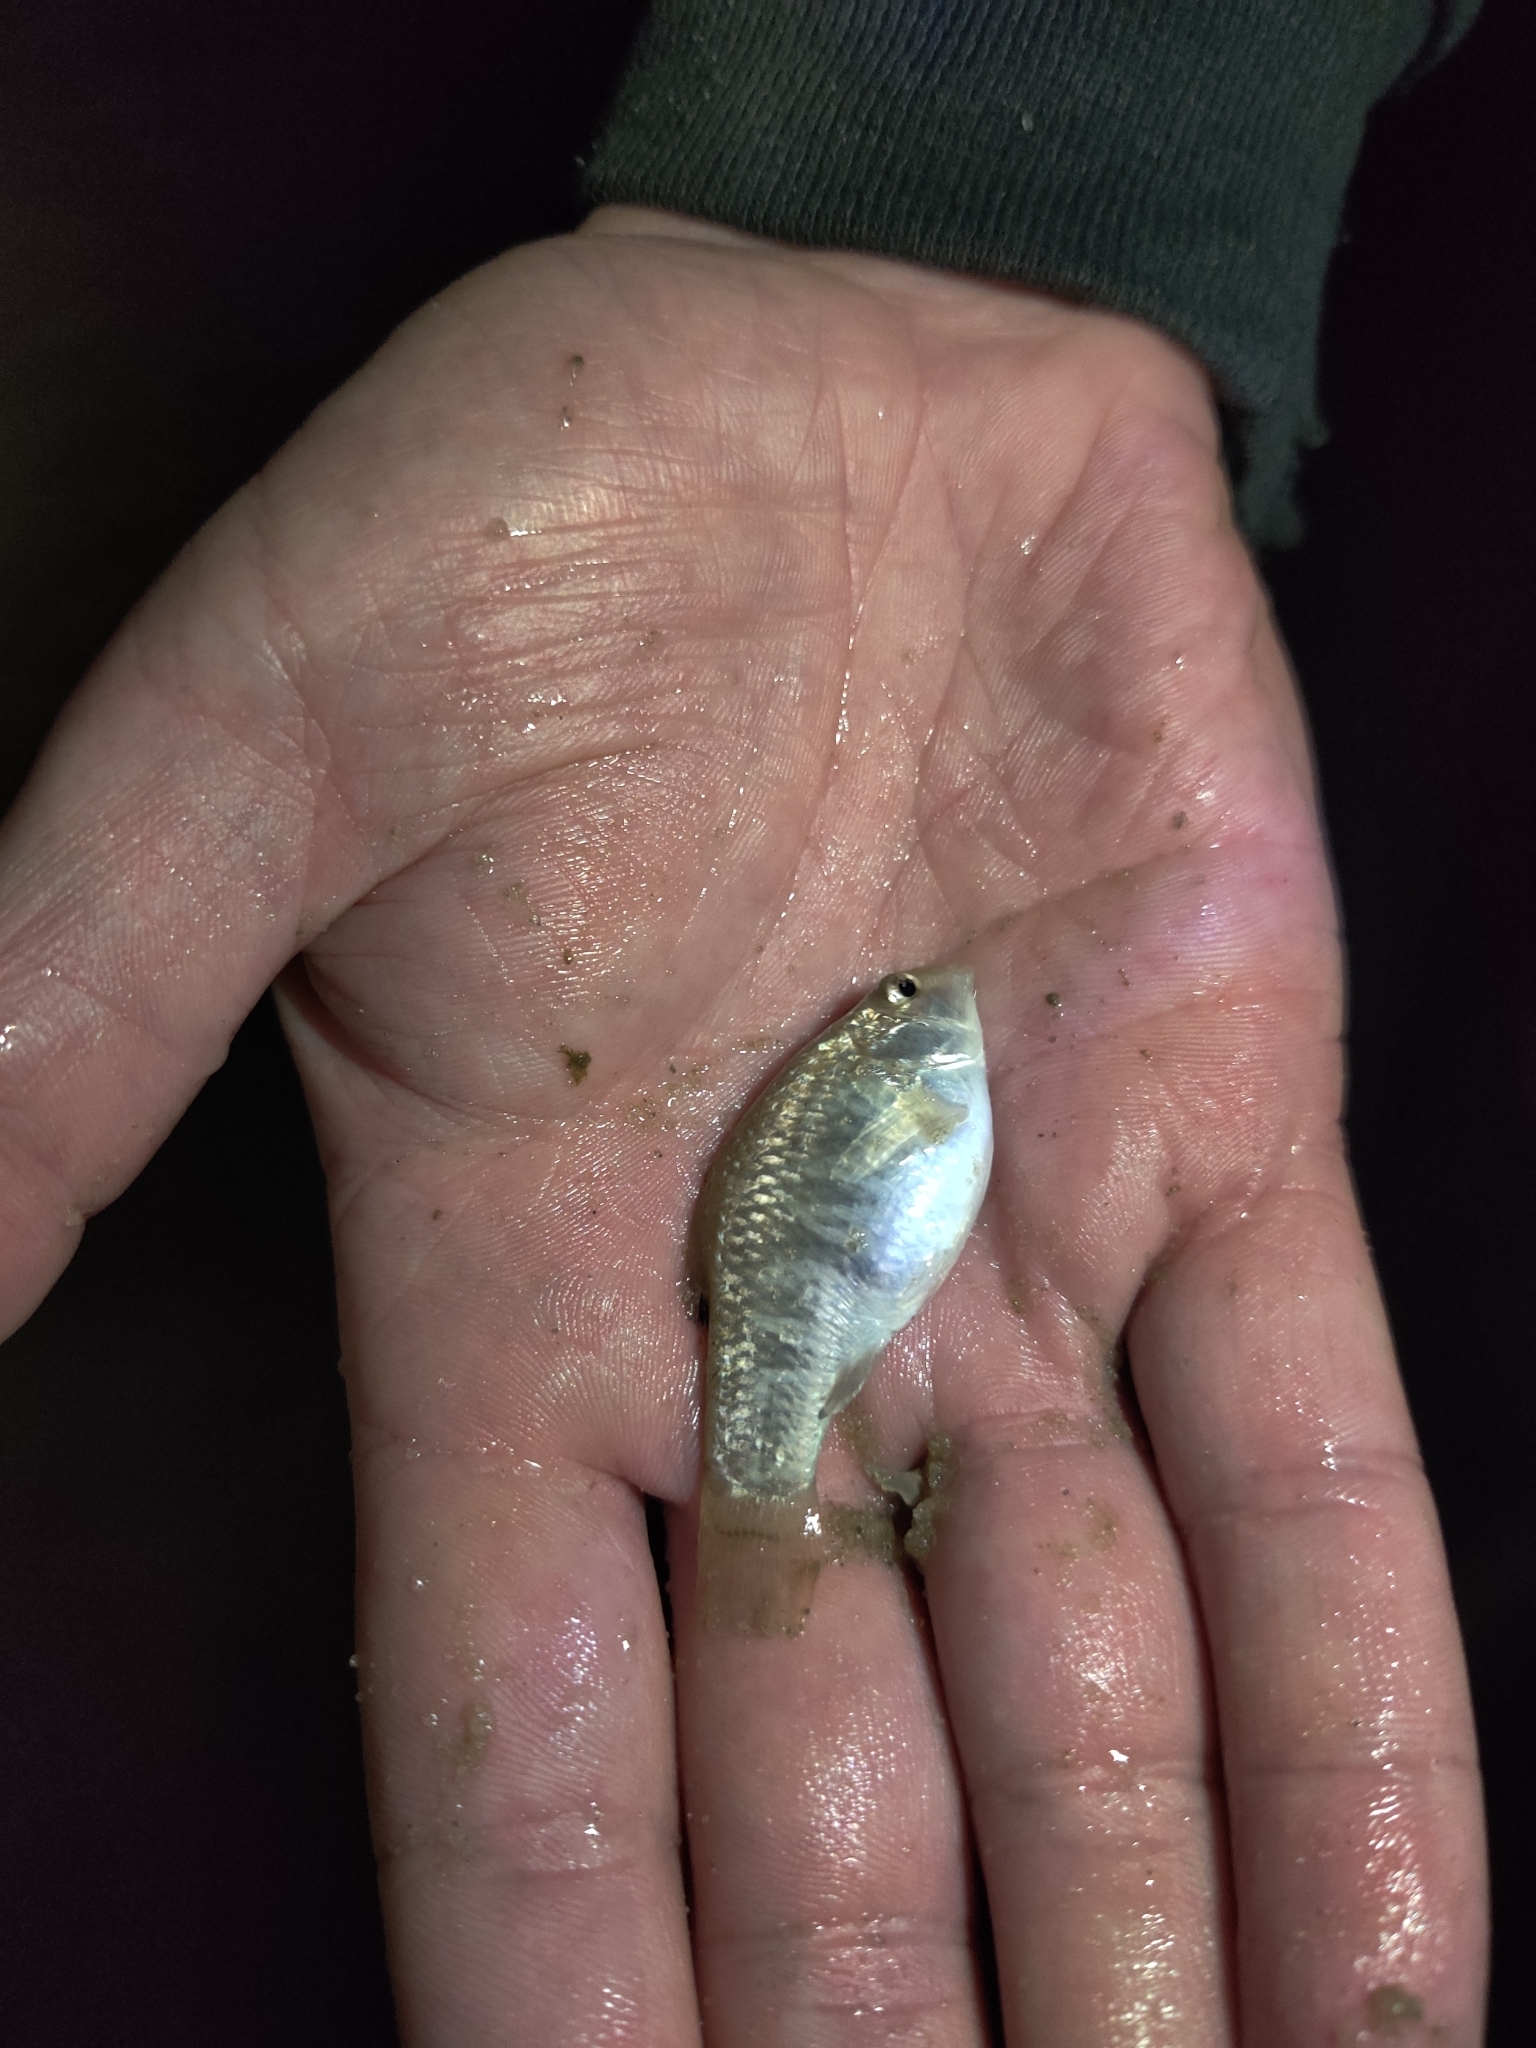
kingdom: Animalia
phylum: Chordata
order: Cyprinodontiformes
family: Cyprinodontidae
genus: Cyprinodon
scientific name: Cyprinodon variegatus
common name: Sheepshead minnow
